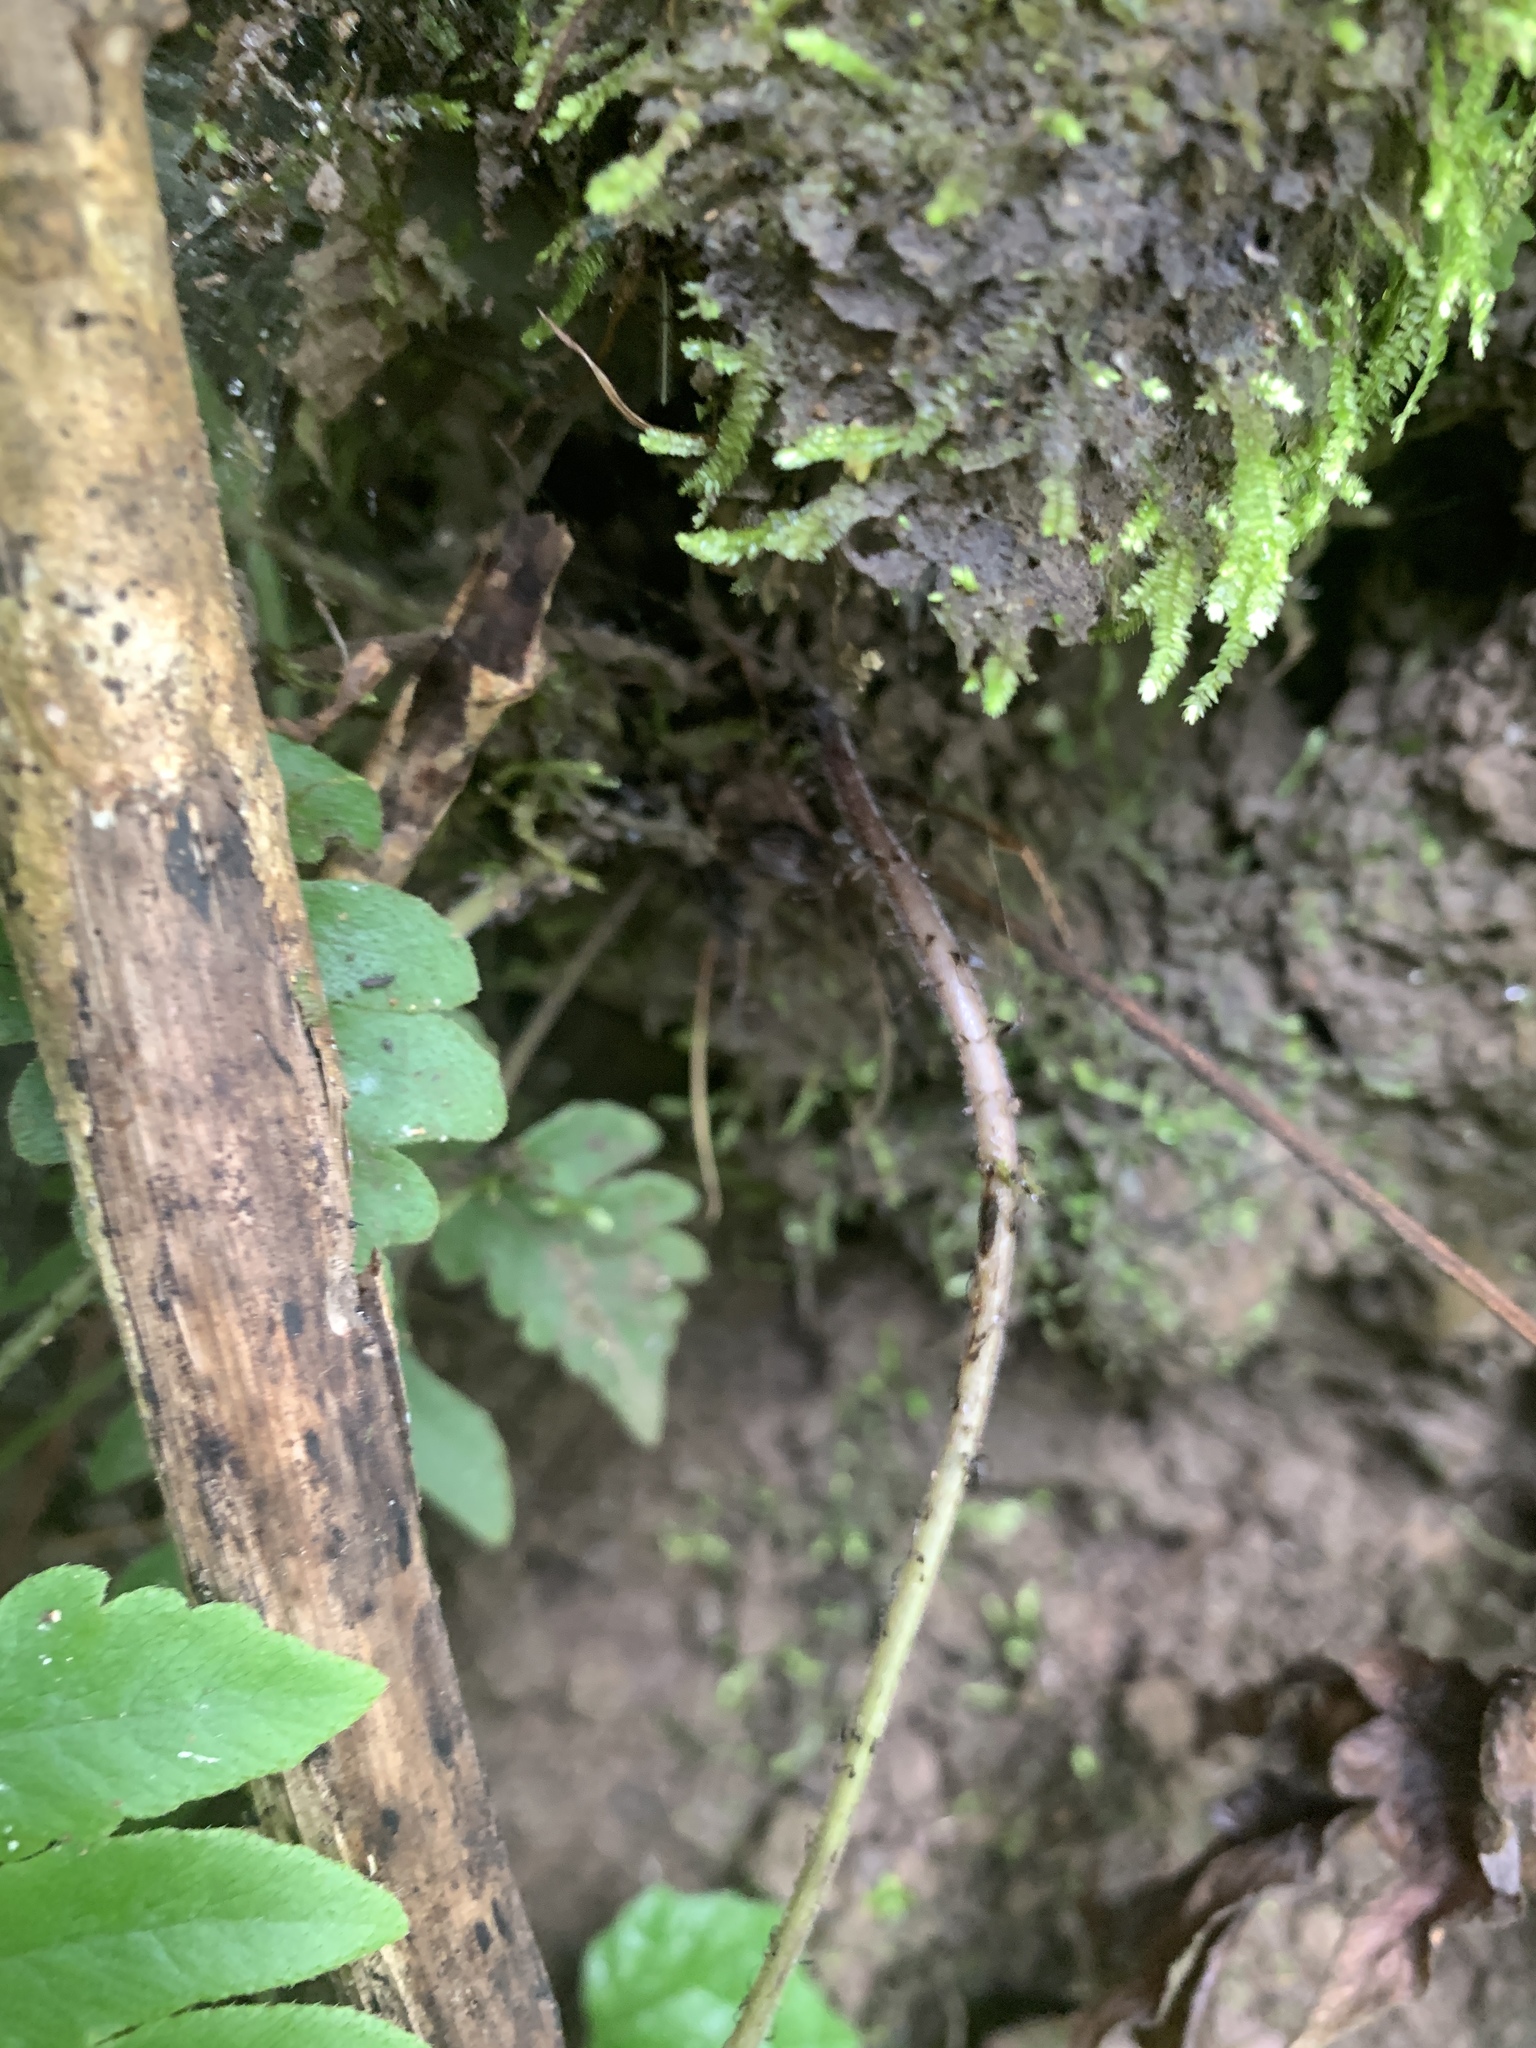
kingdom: Plantae
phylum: Tracheophyta
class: Polypodiopsida
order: Polypodiales
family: Tectariaceae
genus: Tectaria
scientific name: Tectaria fuscipes
